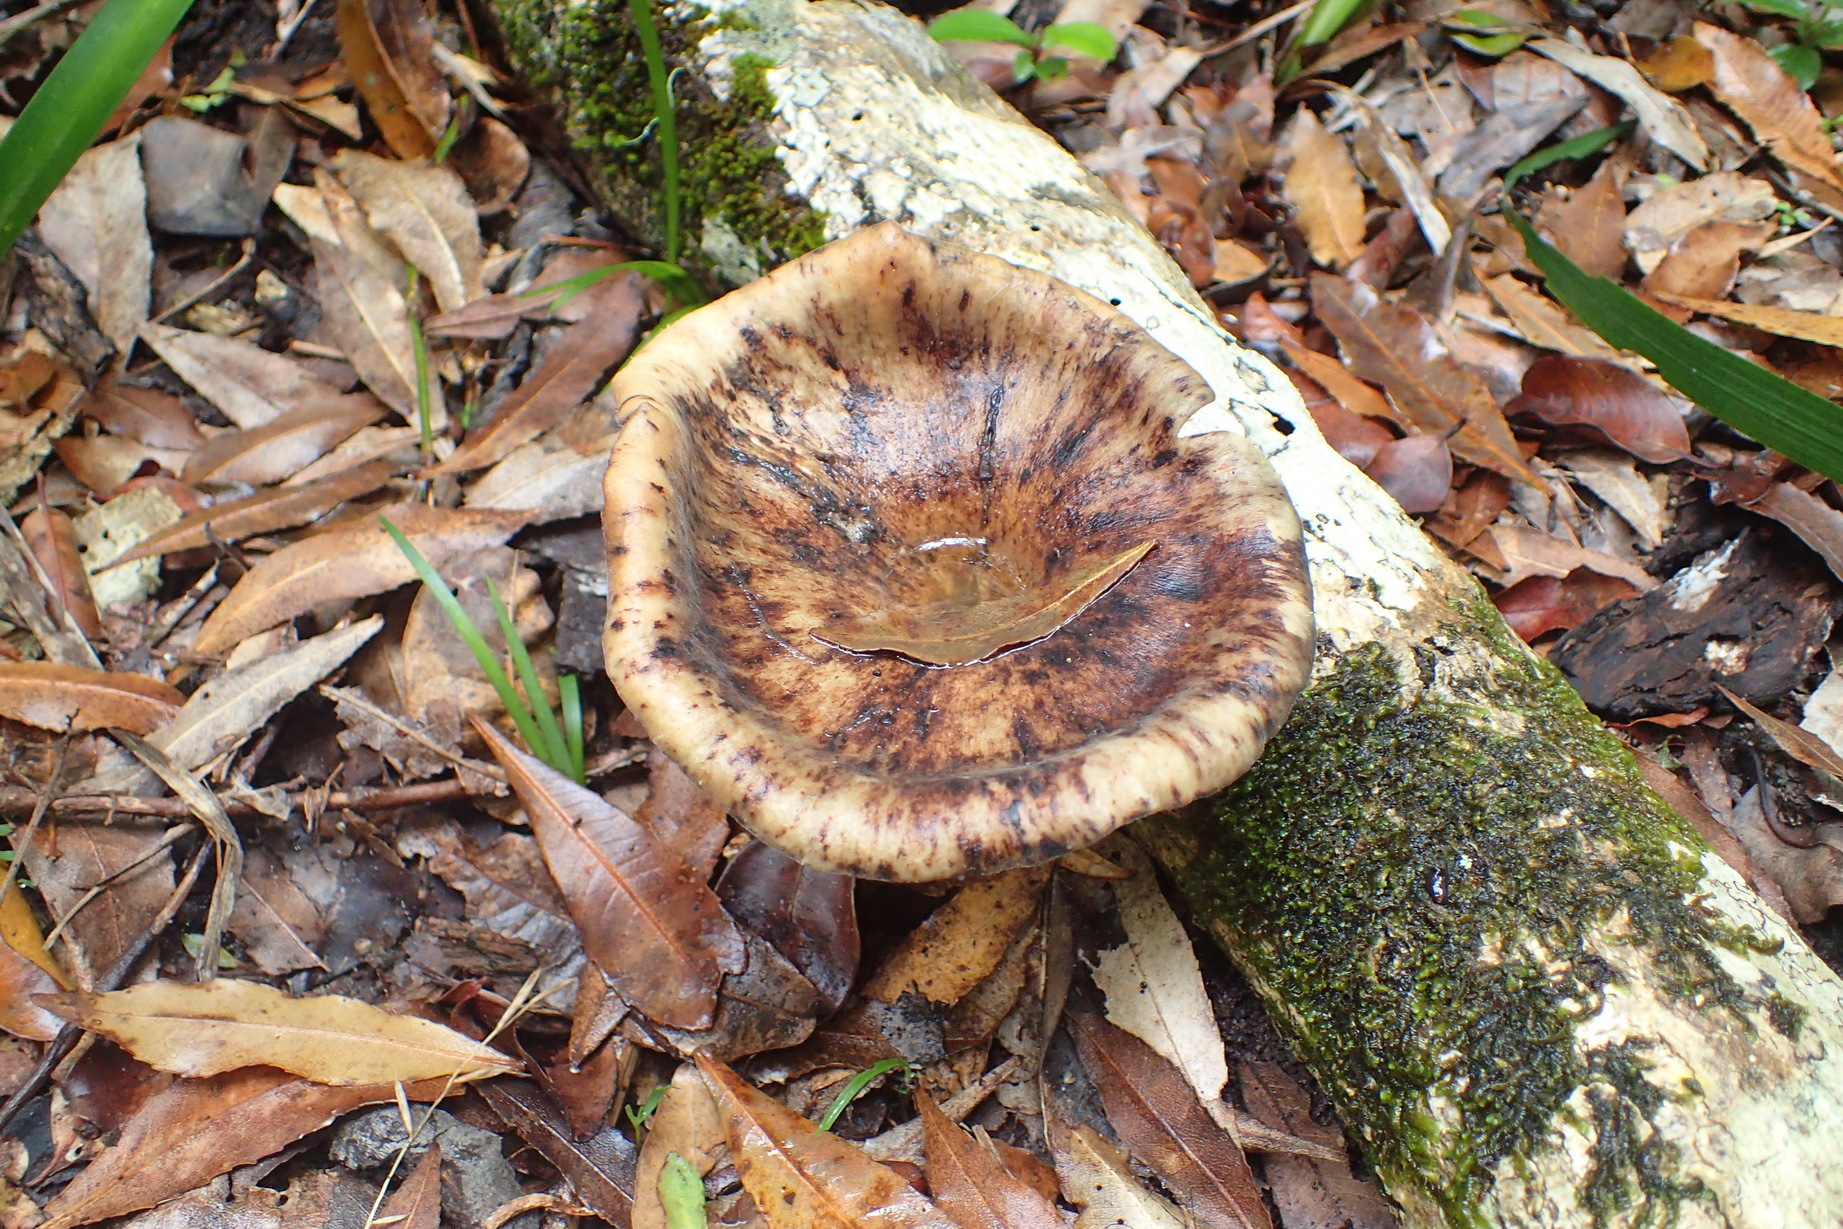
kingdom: Fungi
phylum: Basidiomycota
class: Agaricomycetes
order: Polyporales
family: Polyporaceae
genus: Lentinus
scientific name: Lentinus sajor-caju
